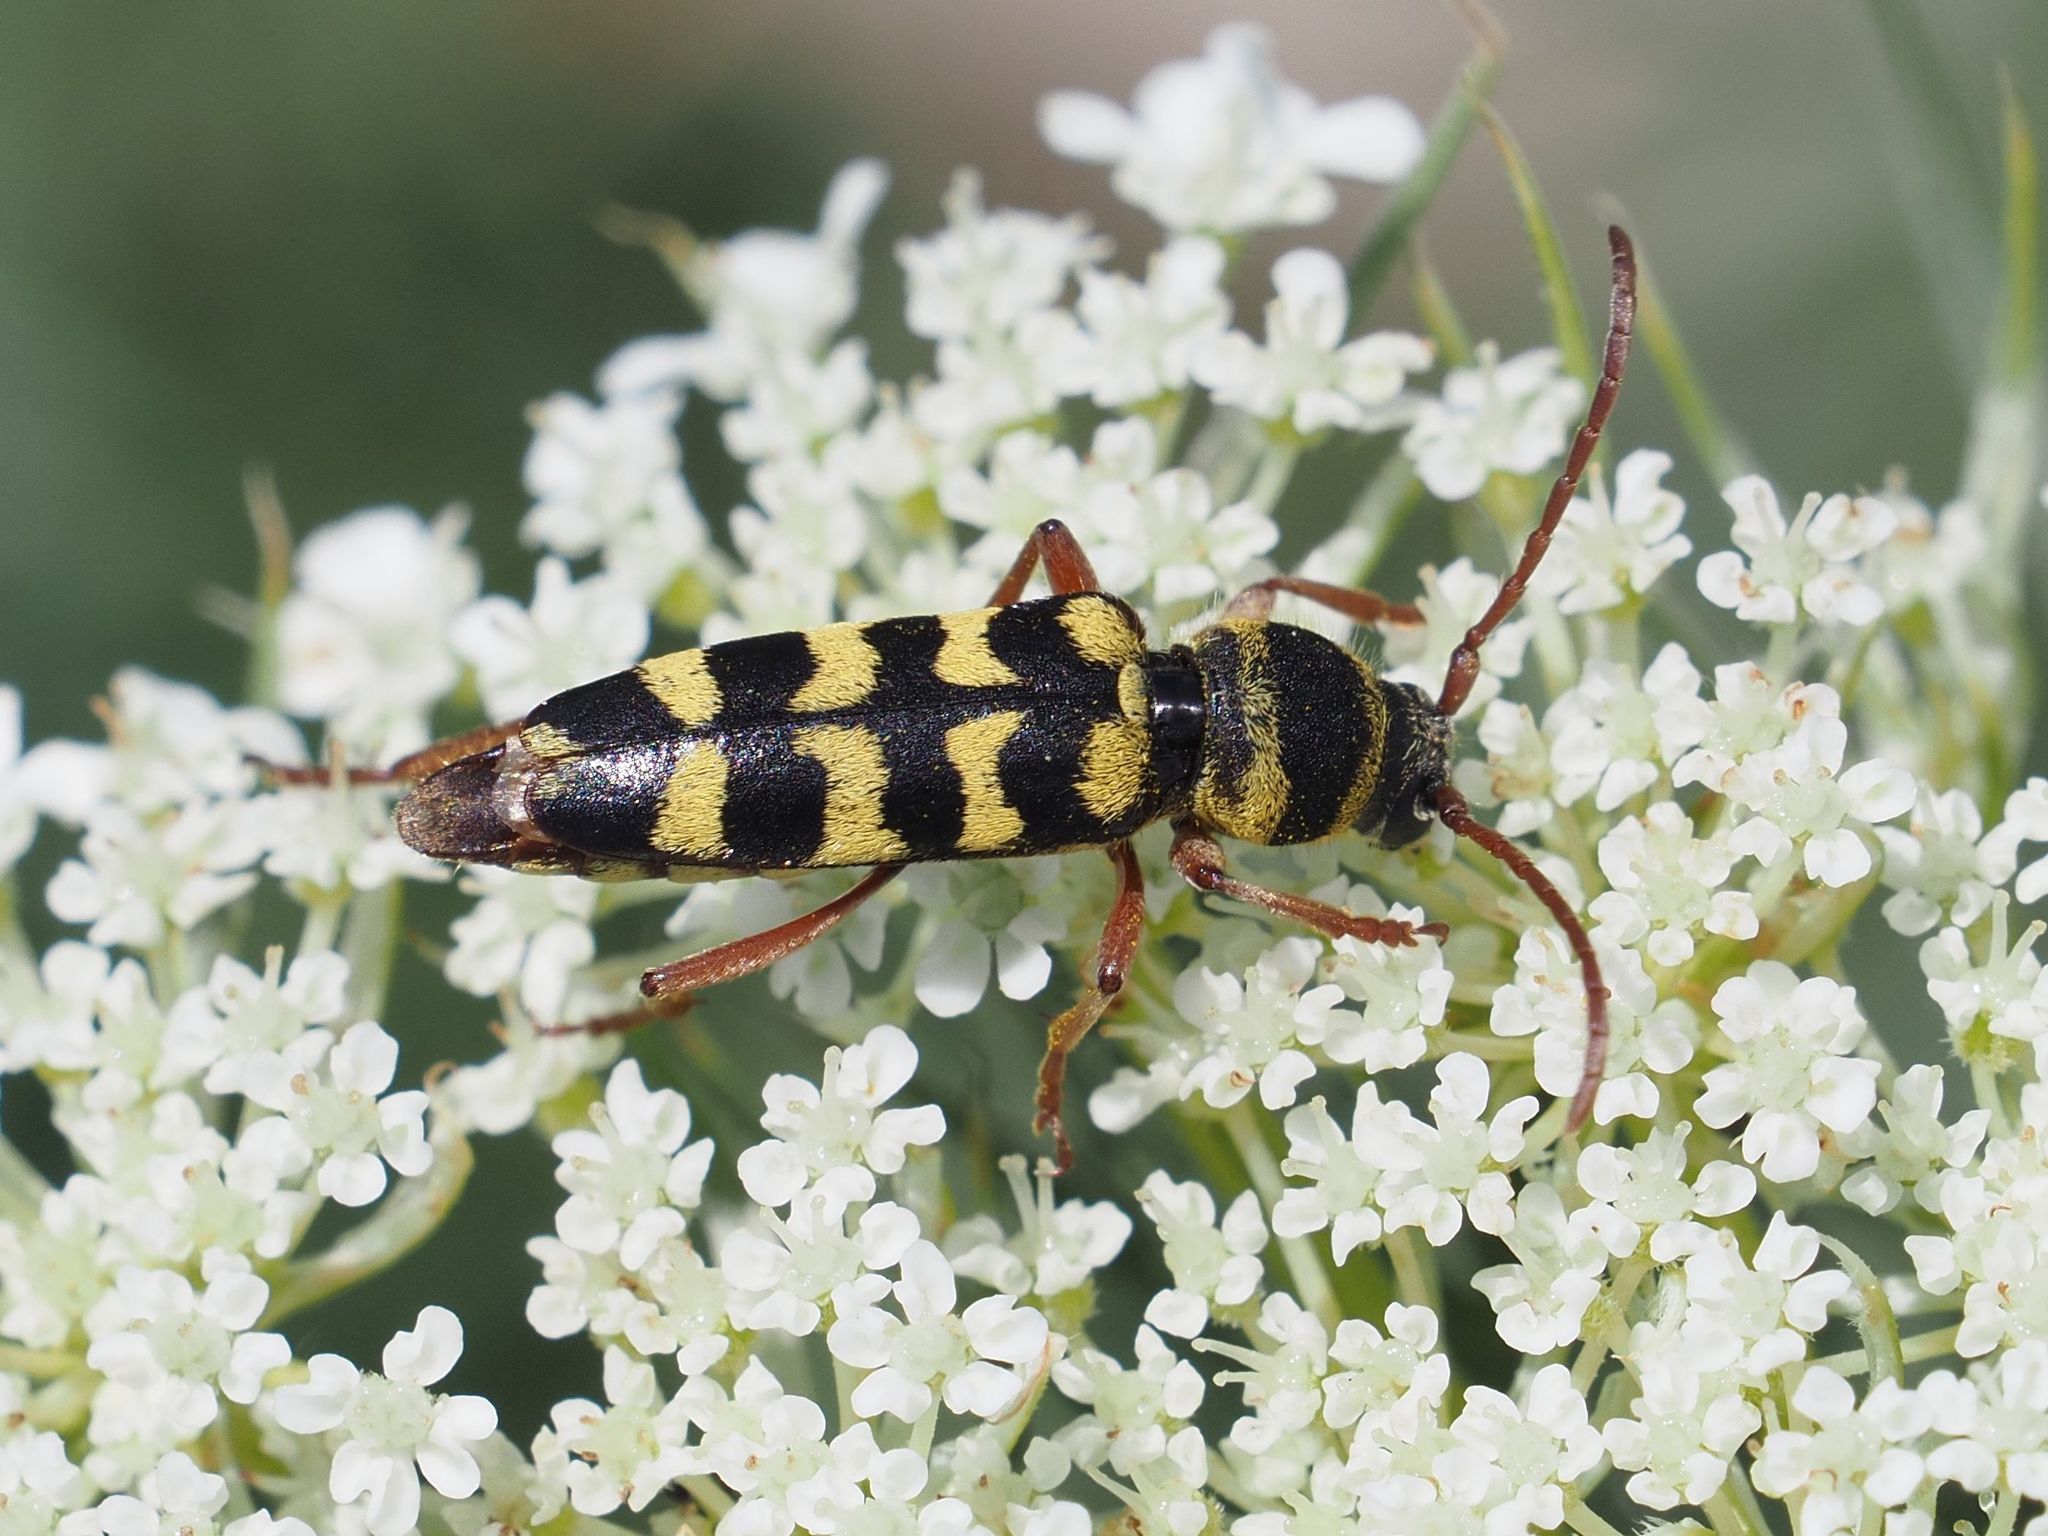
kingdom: Animalia
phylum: Arthropoda
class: Insecta
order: Coleoptera
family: Cerambycidae
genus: Plagionotus
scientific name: Plagionotus floralis
